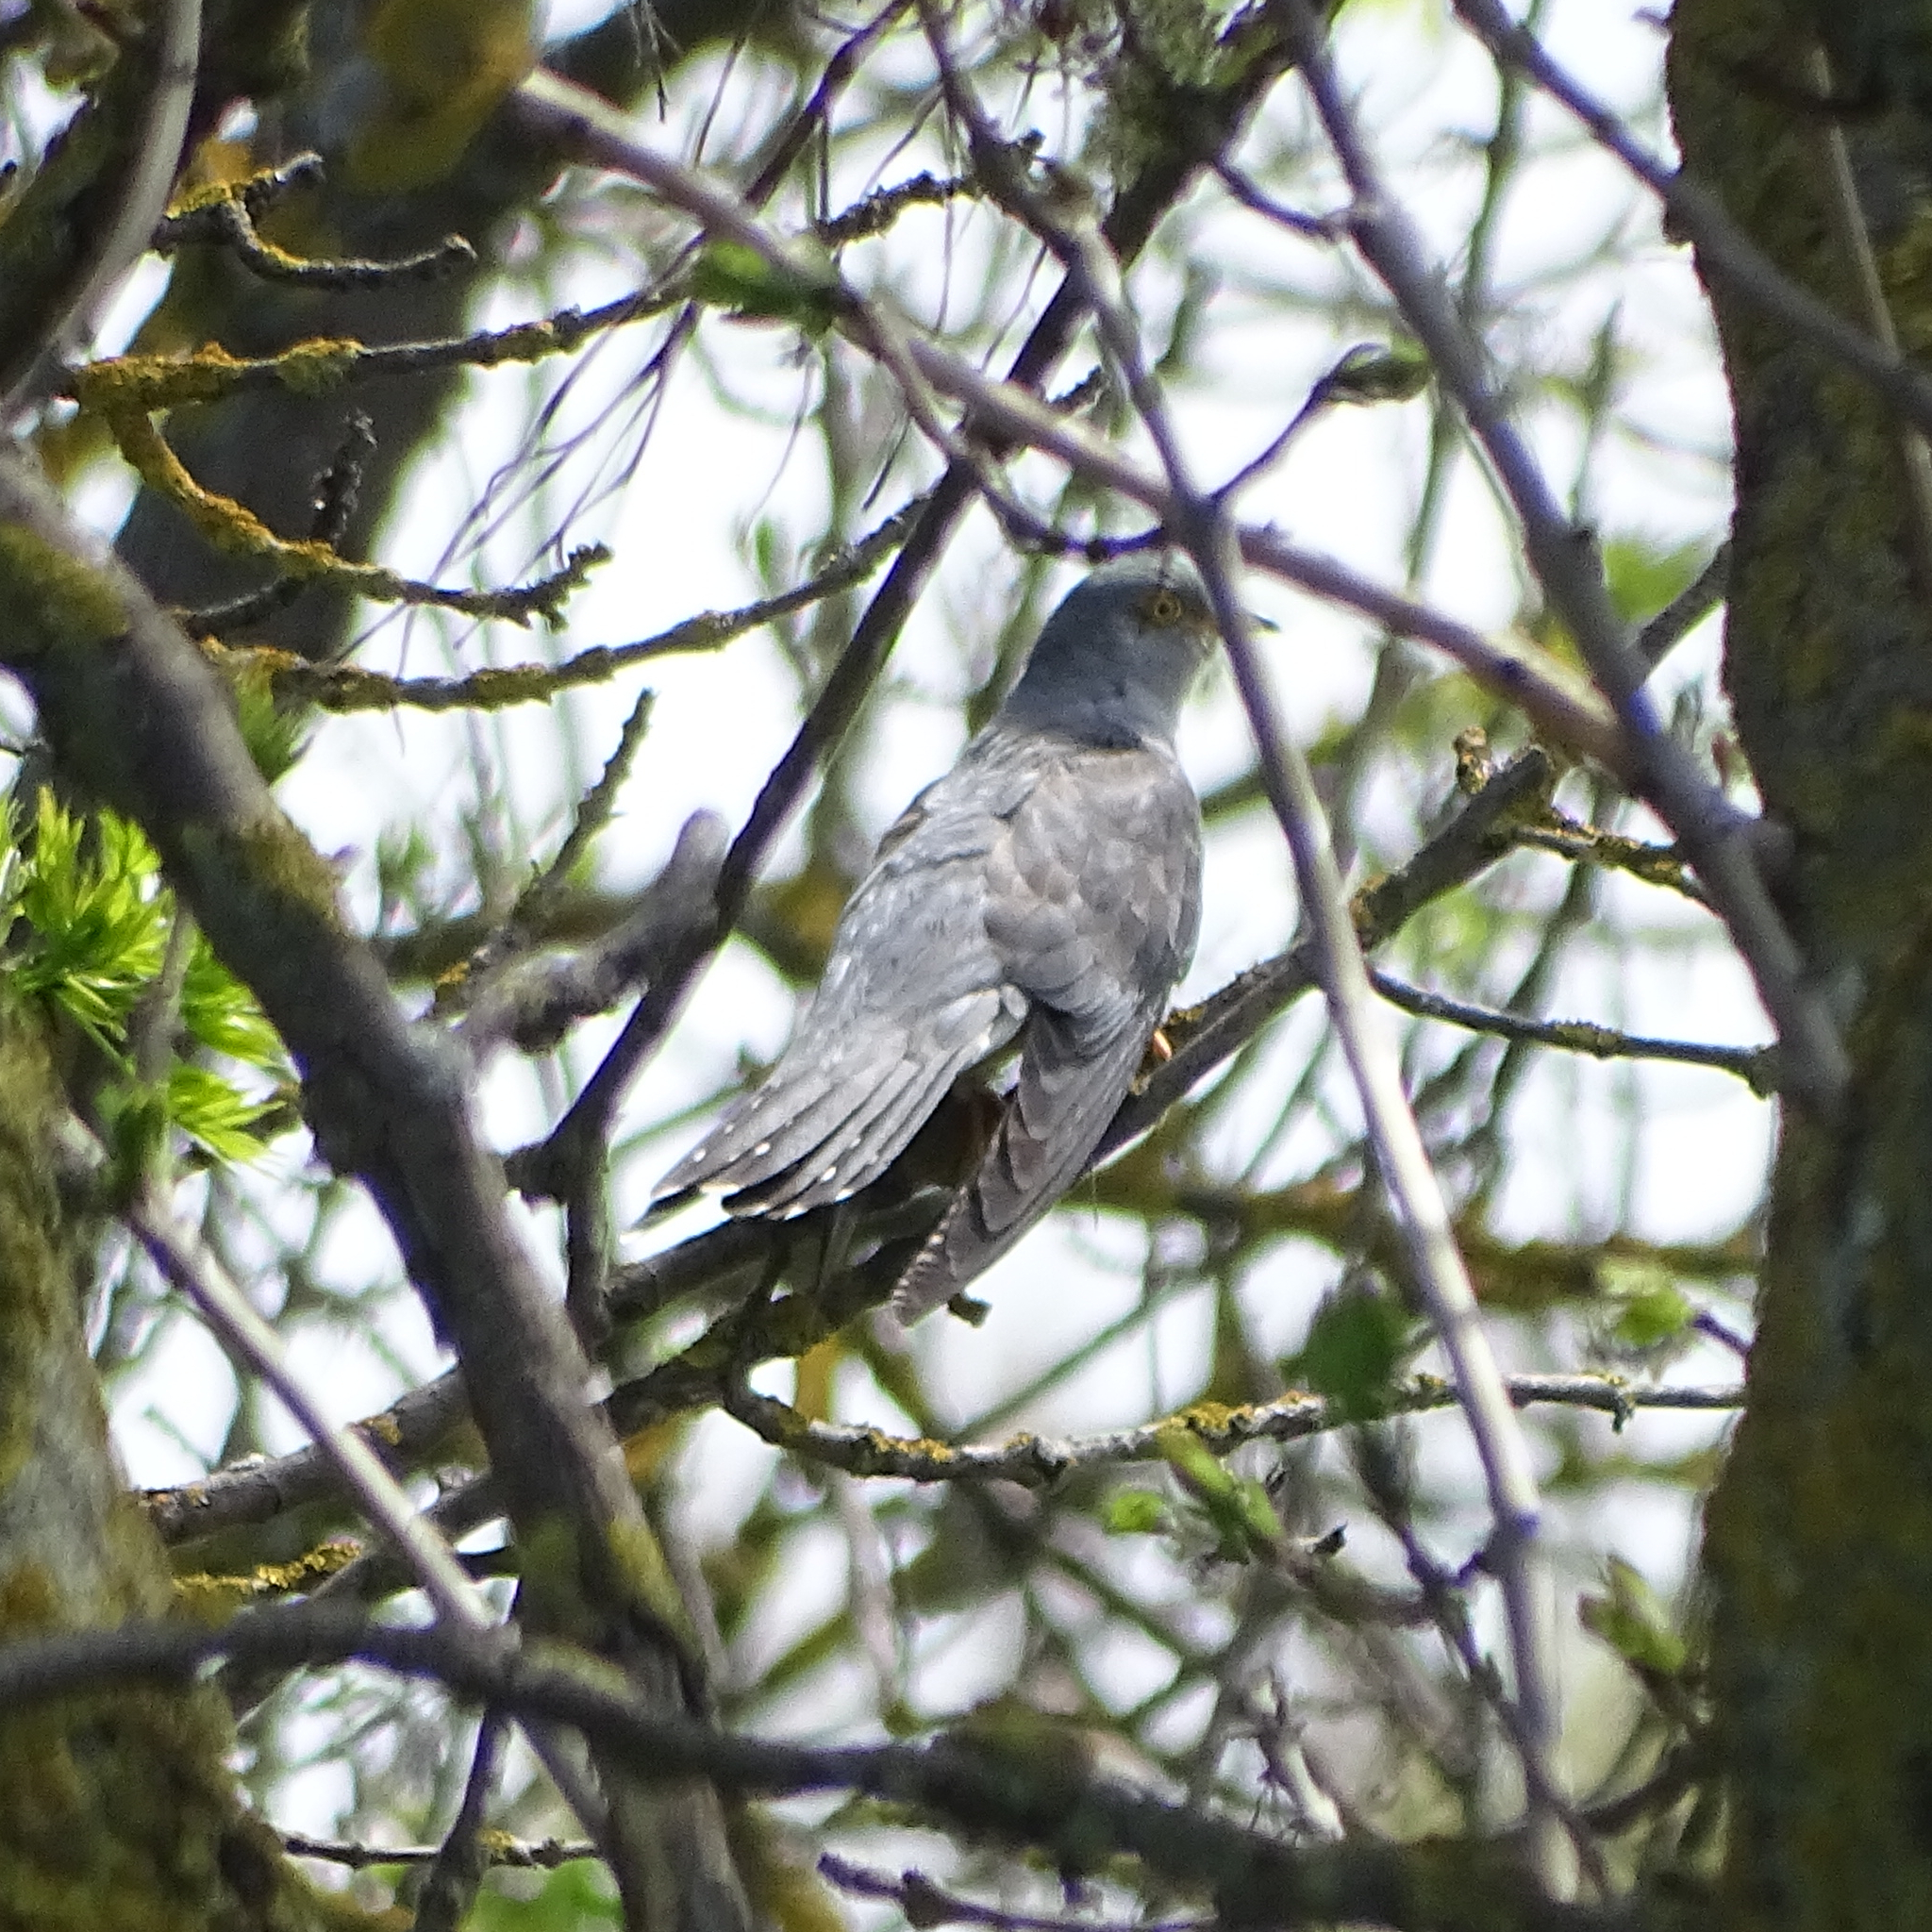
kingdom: Animalia
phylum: Chordata
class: Aves
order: Cuculiformes
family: Cuculidae
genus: Cuculus
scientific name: Cuculus canorus
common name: Common cuckoo
